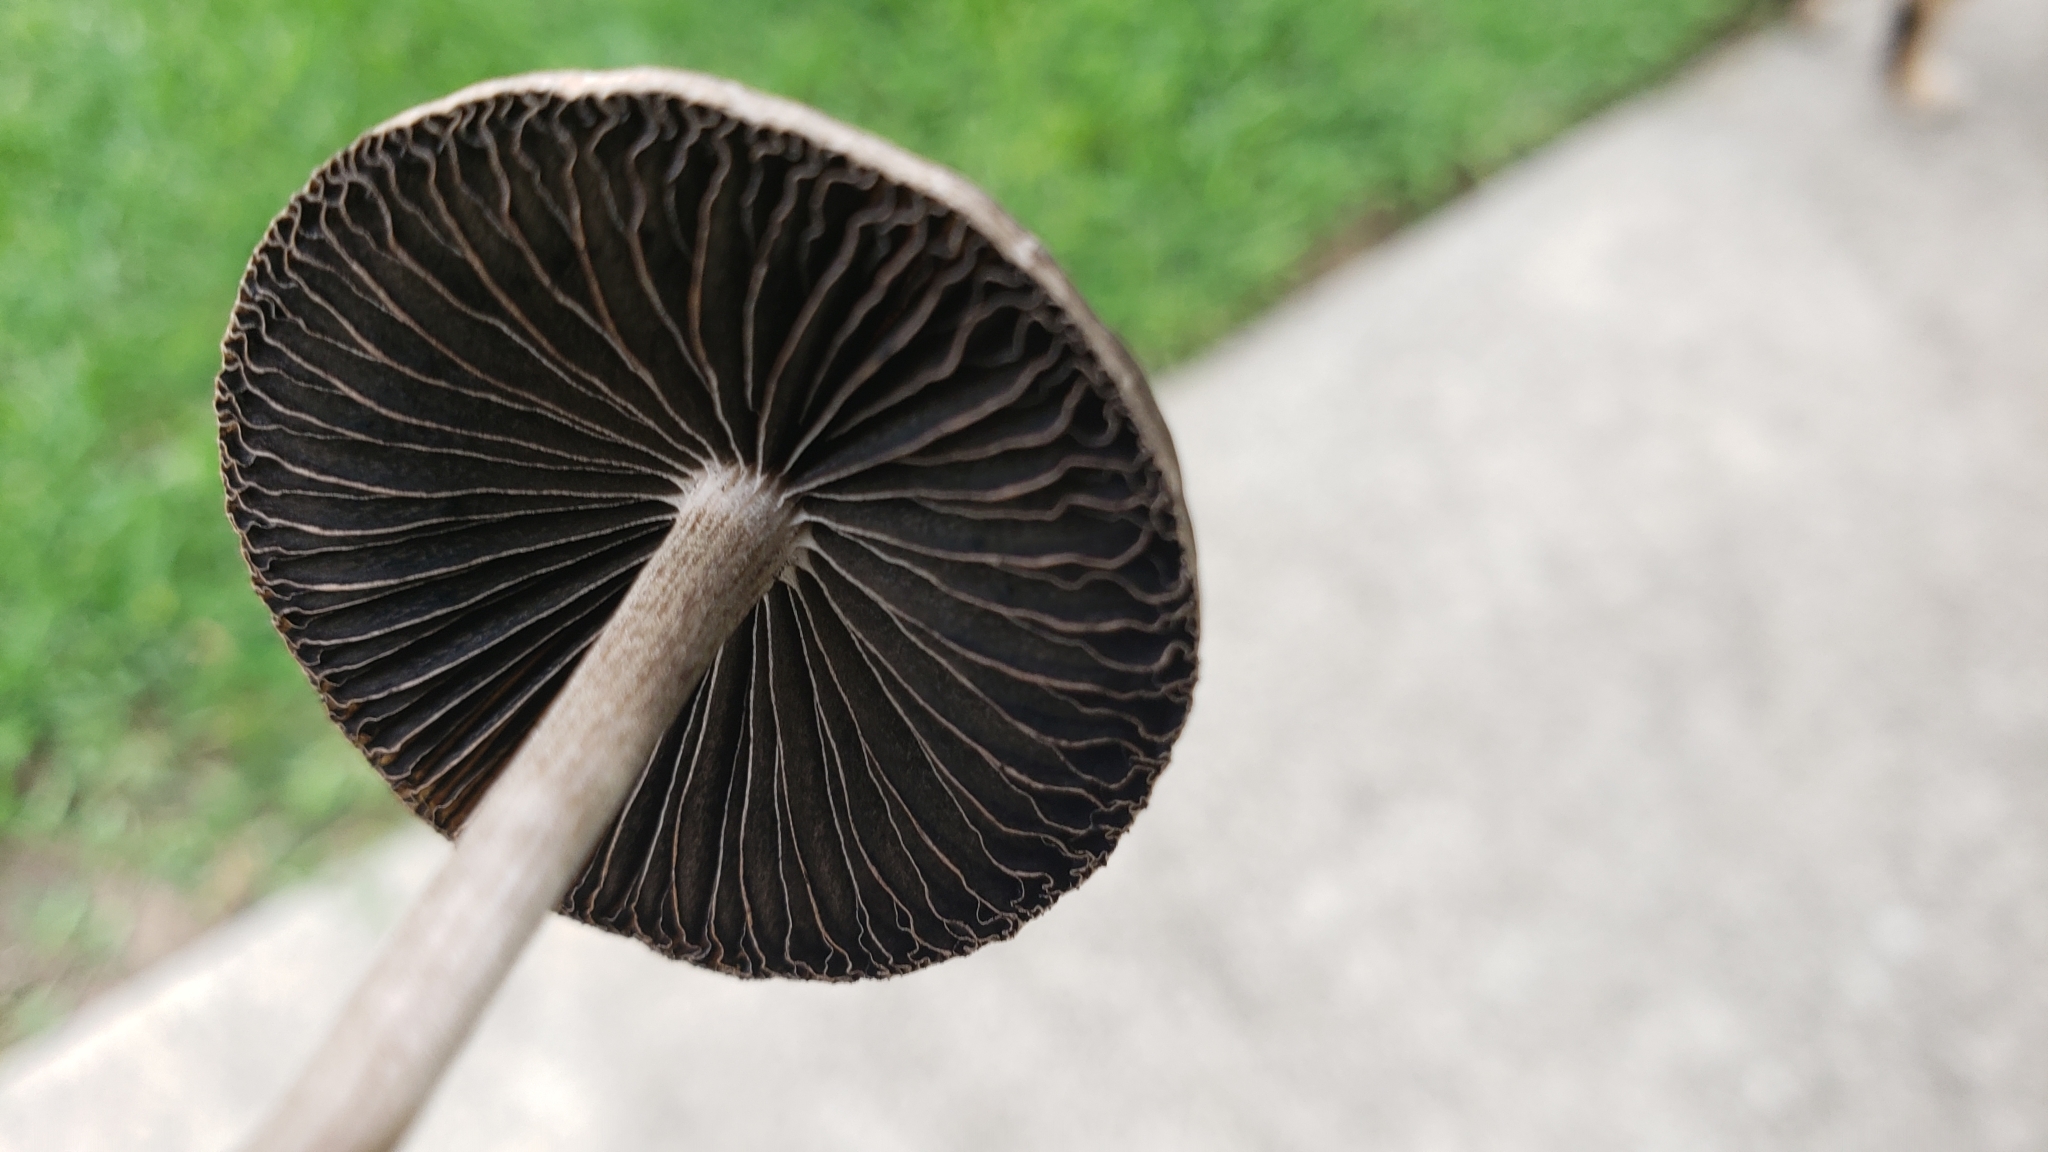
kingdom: Fungi
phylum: Basidiomycota
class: Agaricomycetes
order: Agaricales
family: Bolbitiaceae
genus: Panaeolus
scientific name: Panaeolus cinctulus
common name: Banded mottlegill
